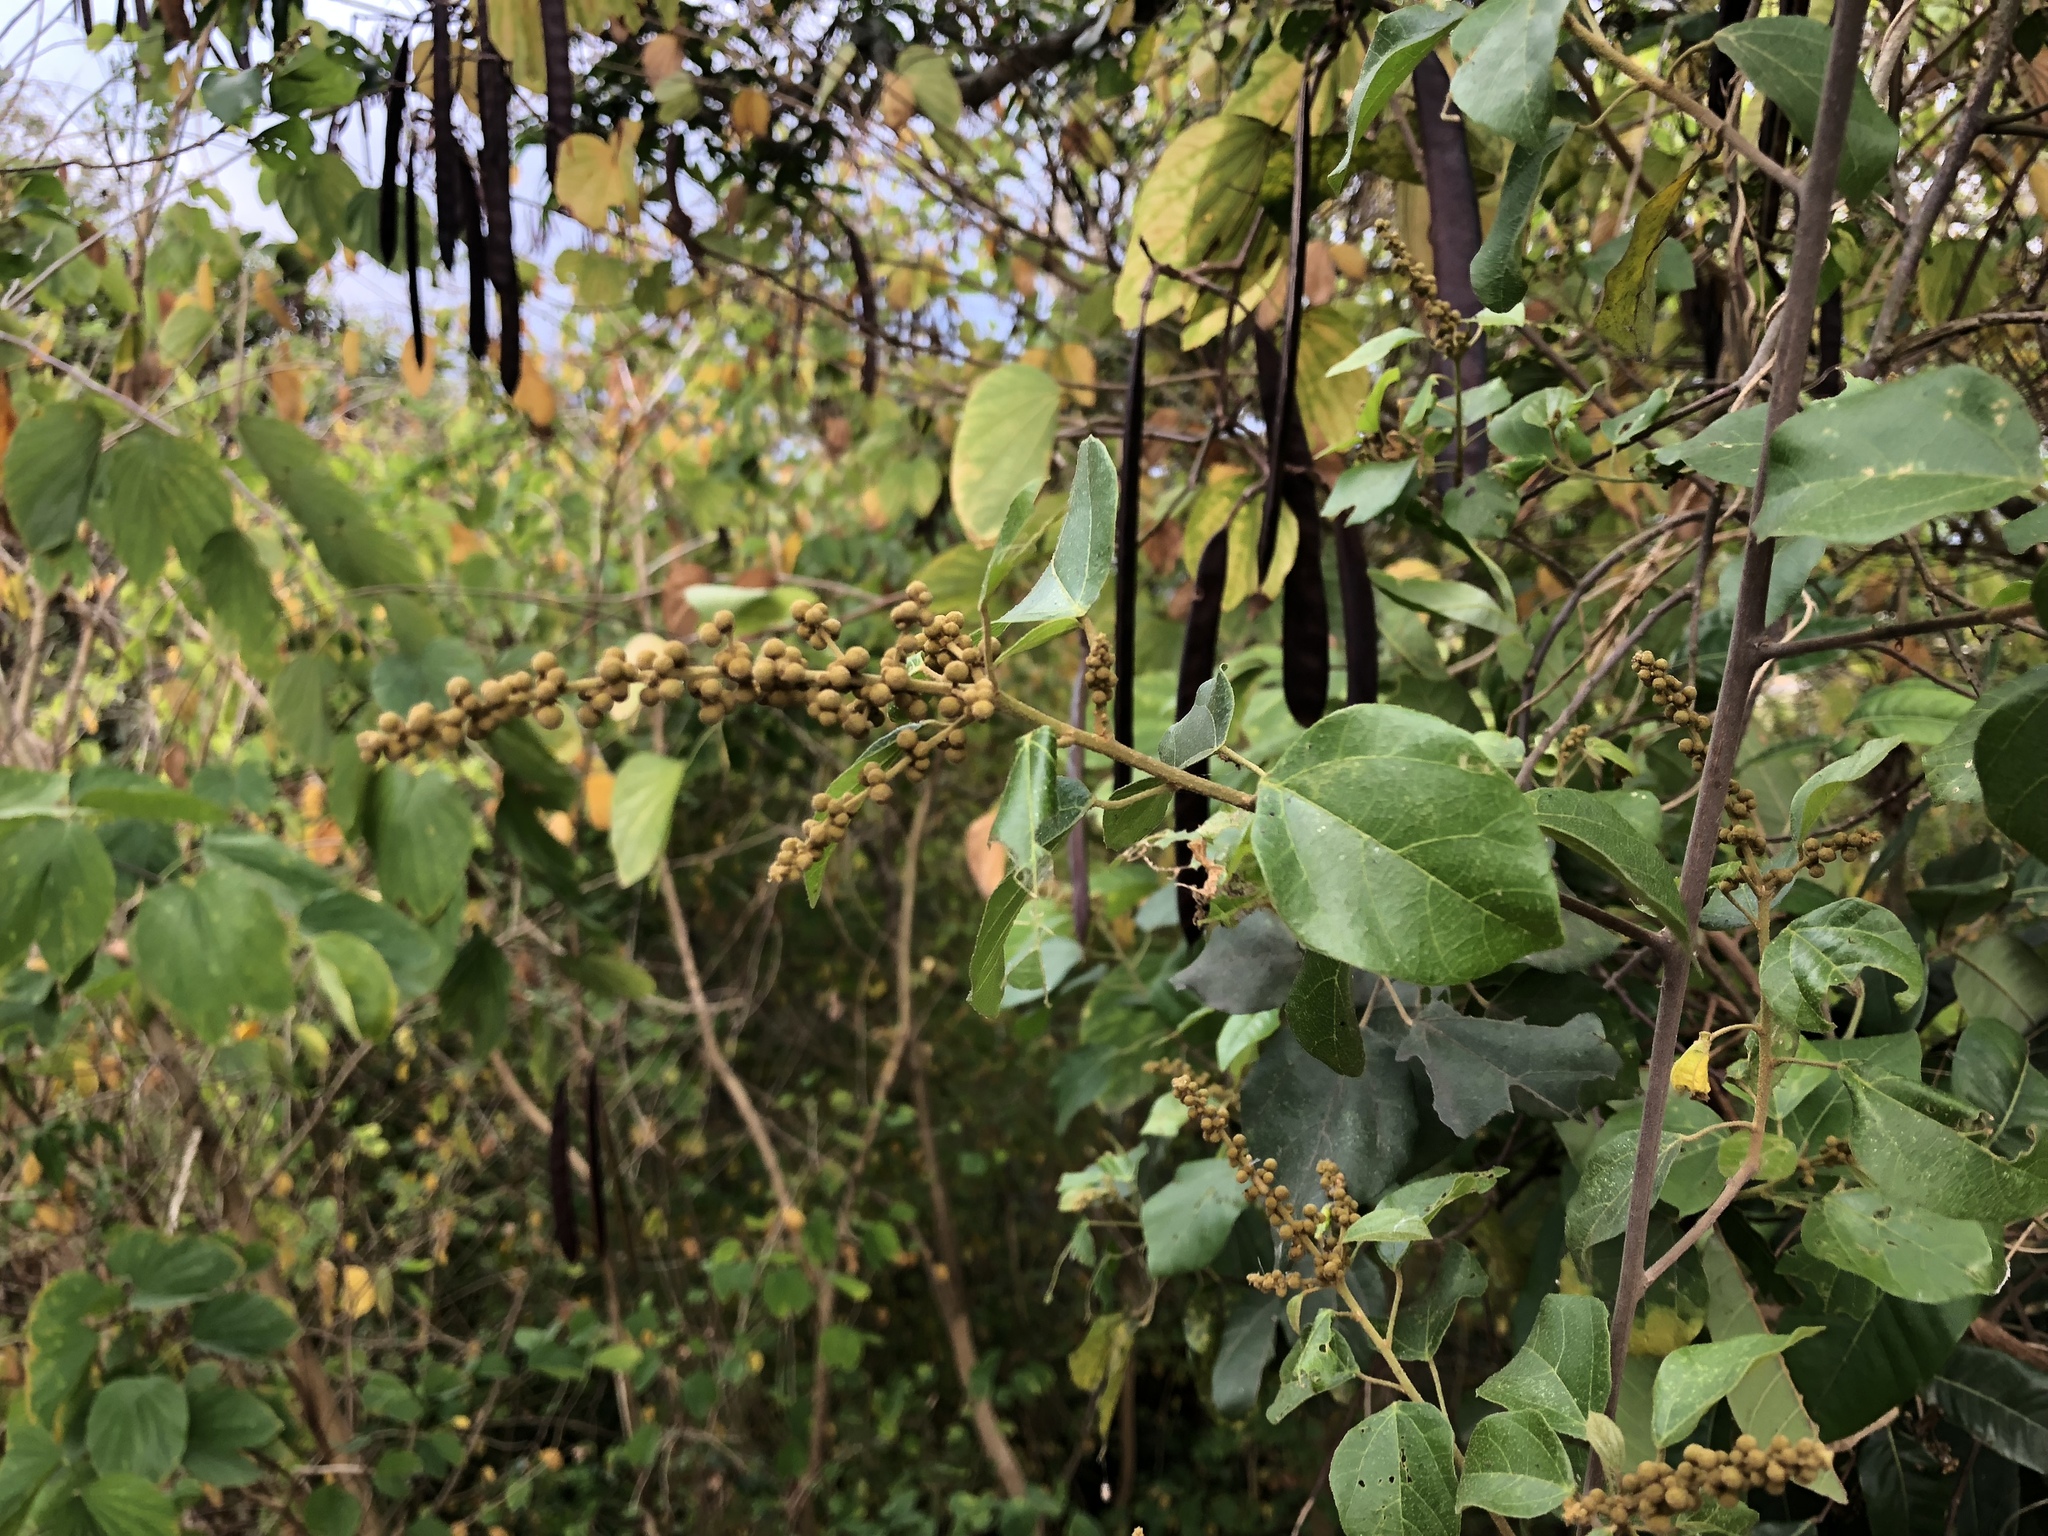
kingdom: Plantae
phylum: Tracheophyta
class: Magnoliopsida
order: Malpighiales
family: Euphorbiaceae
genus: Mallotus
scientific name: Mallotus repandus
